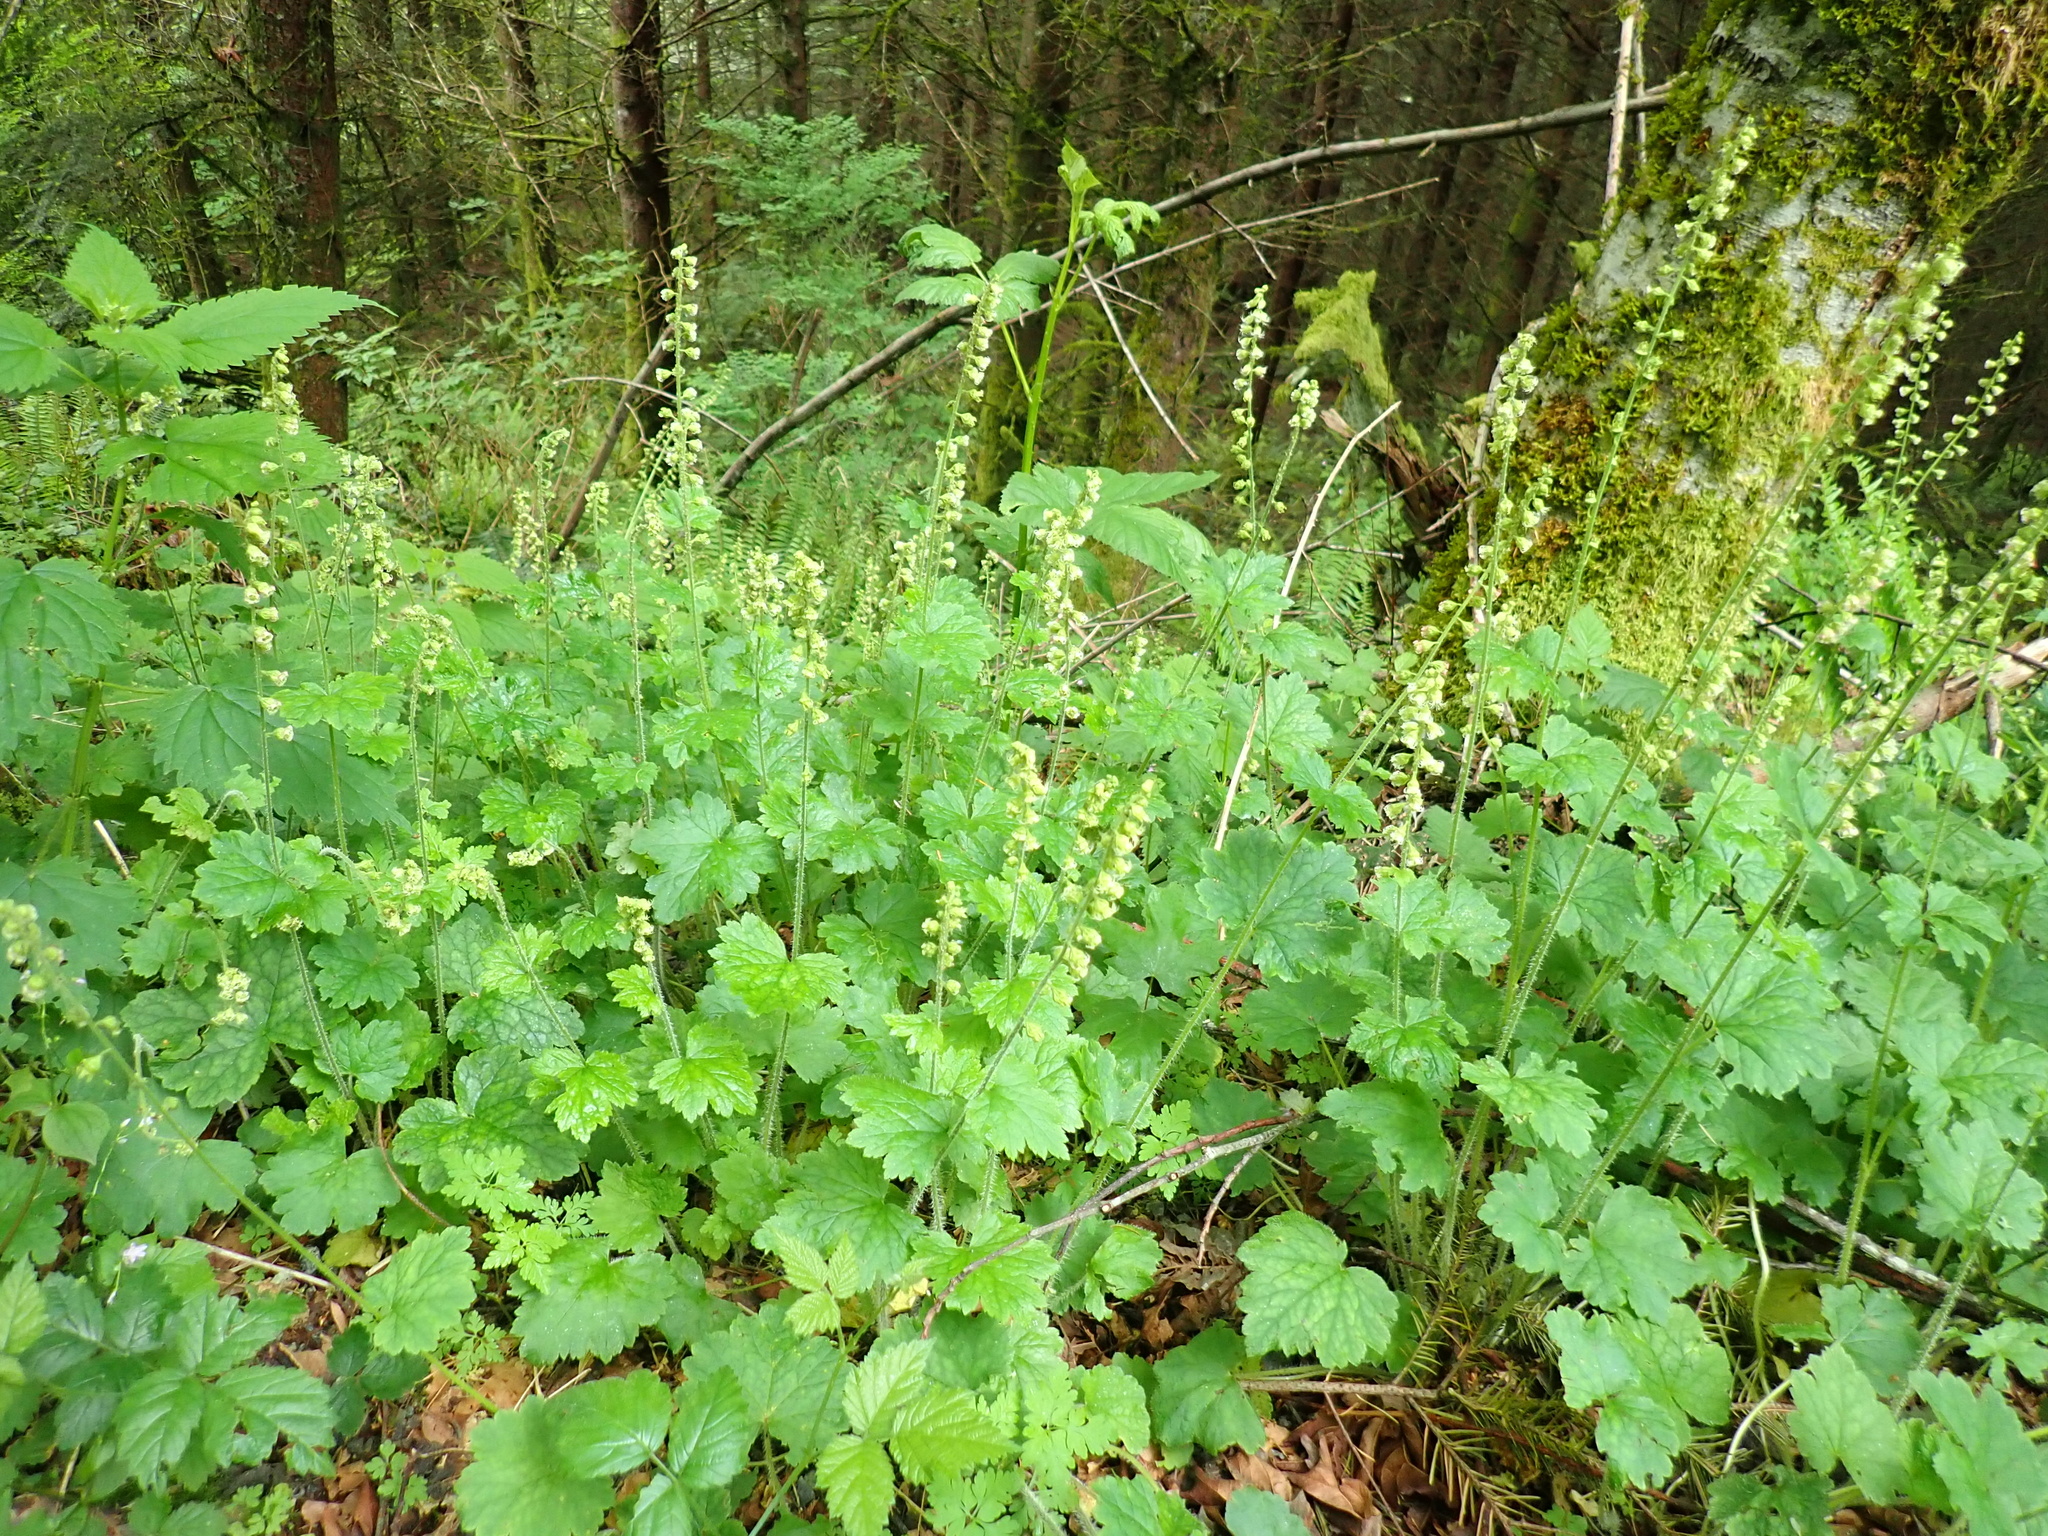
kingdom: Plantae
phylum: Tracheophyta
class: Magnoliopsida
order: Saxifragales
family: Saxifragaceae
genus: Tellima
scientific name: Tellima grandiflora
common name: Fringecups
